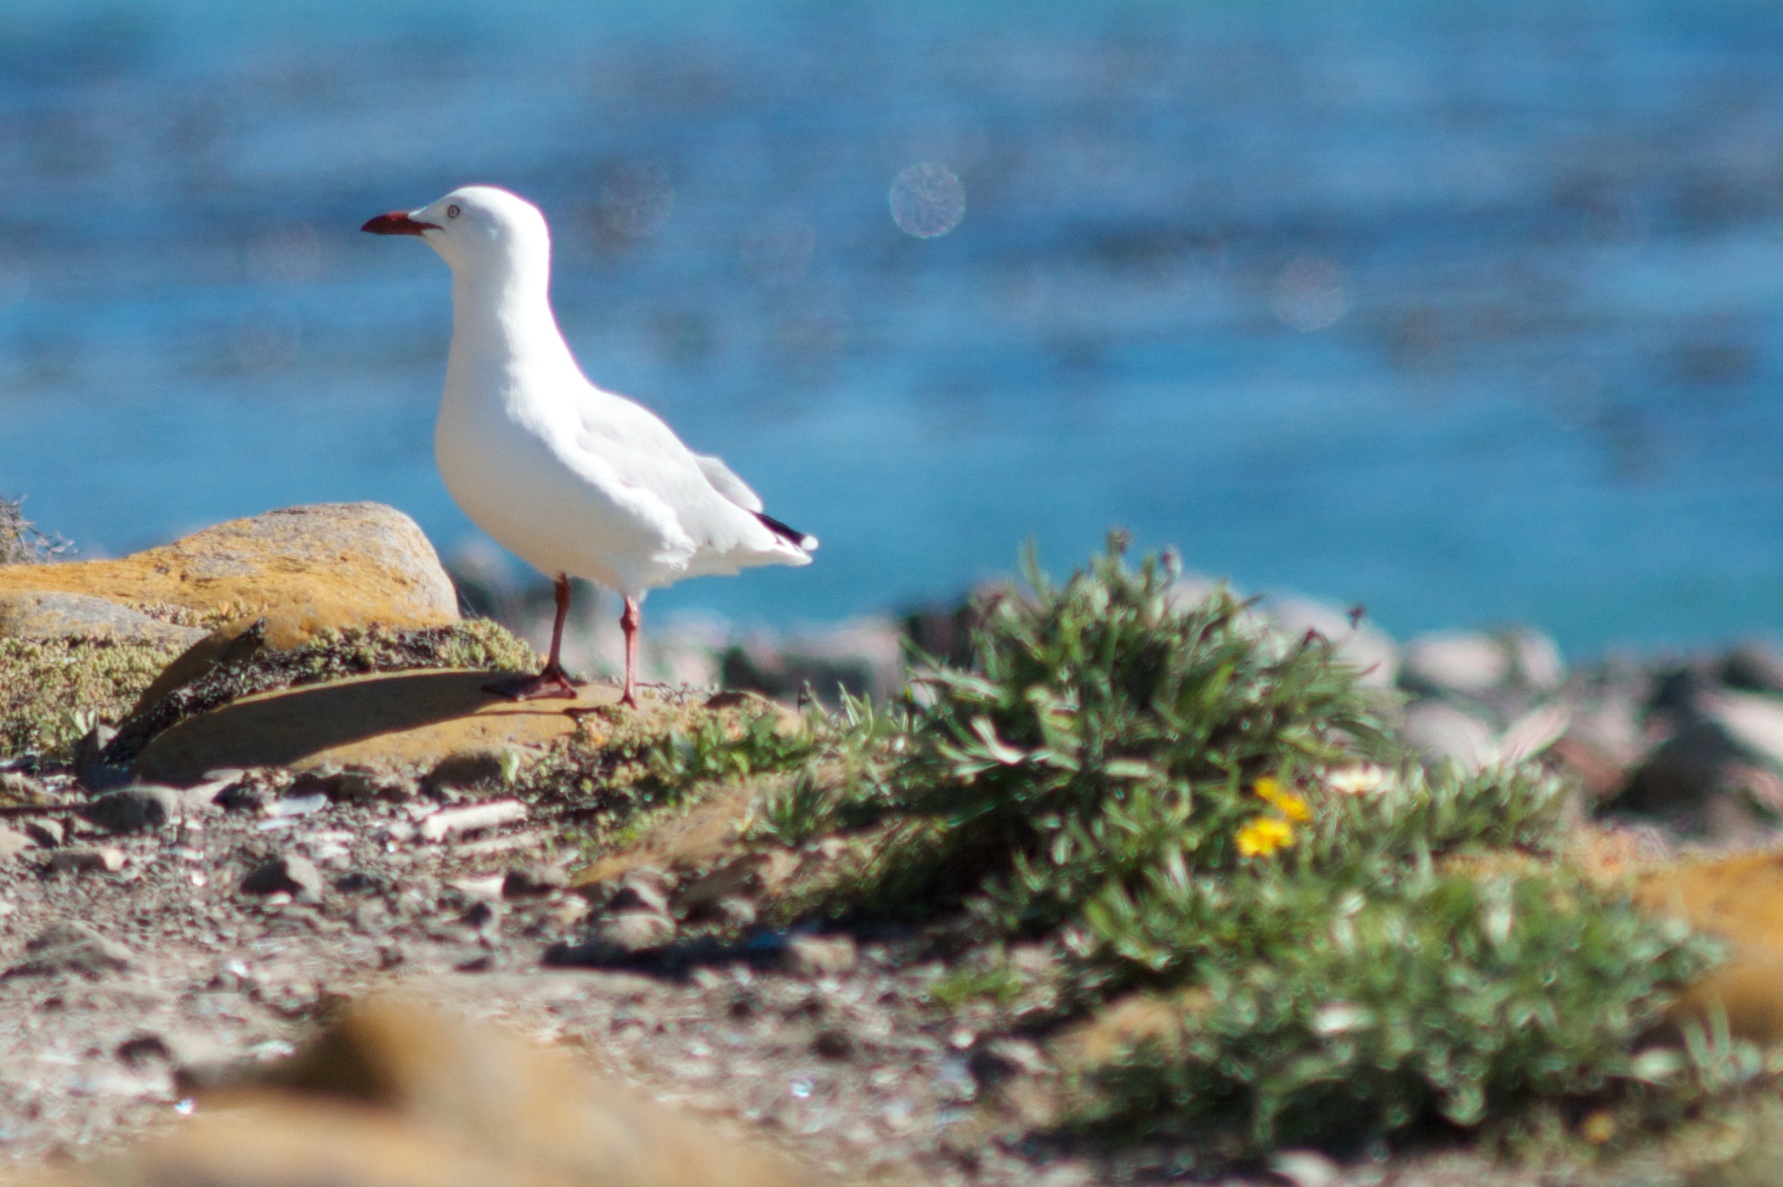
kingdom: Animalia
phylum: Chordata
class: Aves
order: Charadriiformes
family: Laridae
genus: Chroicocephalus
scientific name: Chroicocephalus novaehollandiae
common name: Silver gull
